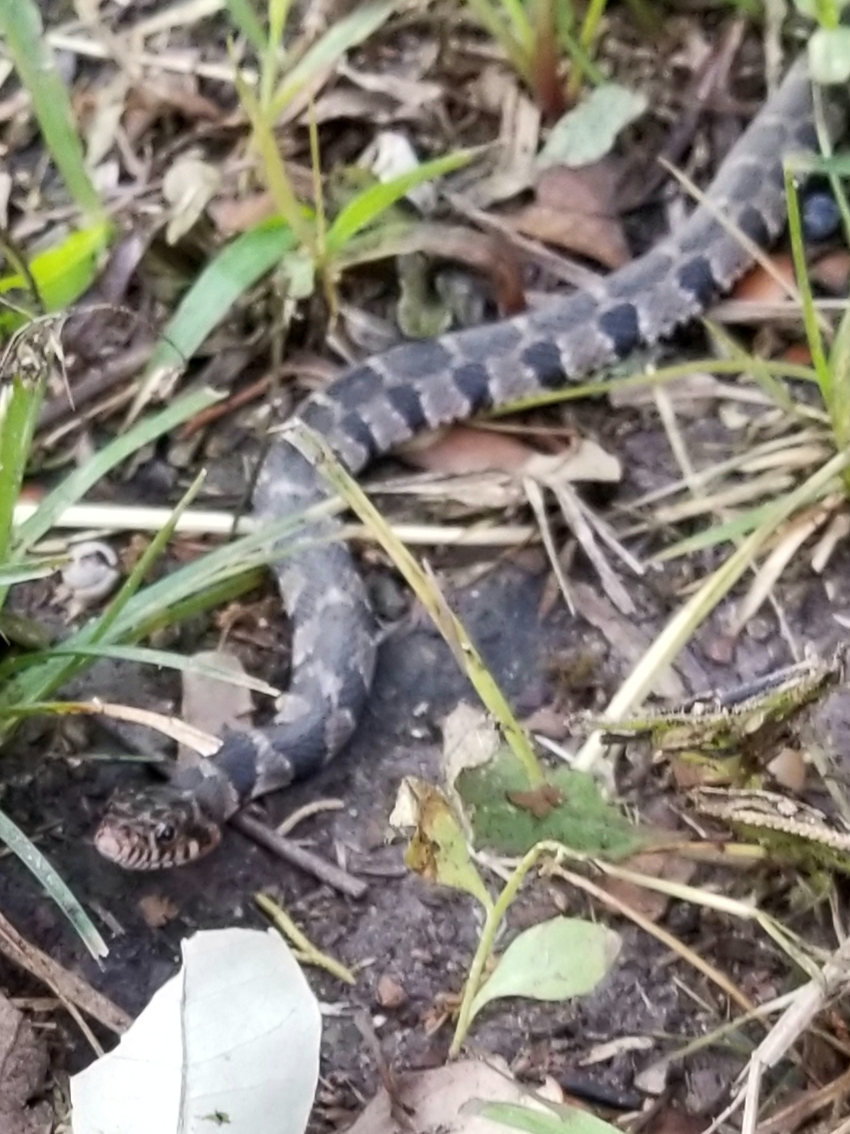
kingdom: Animalia
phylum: Chordata
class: Squamata
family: Colubridae
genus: Nerodia
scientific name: Nerodia erythrogaster
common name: Plainbelly water snake
